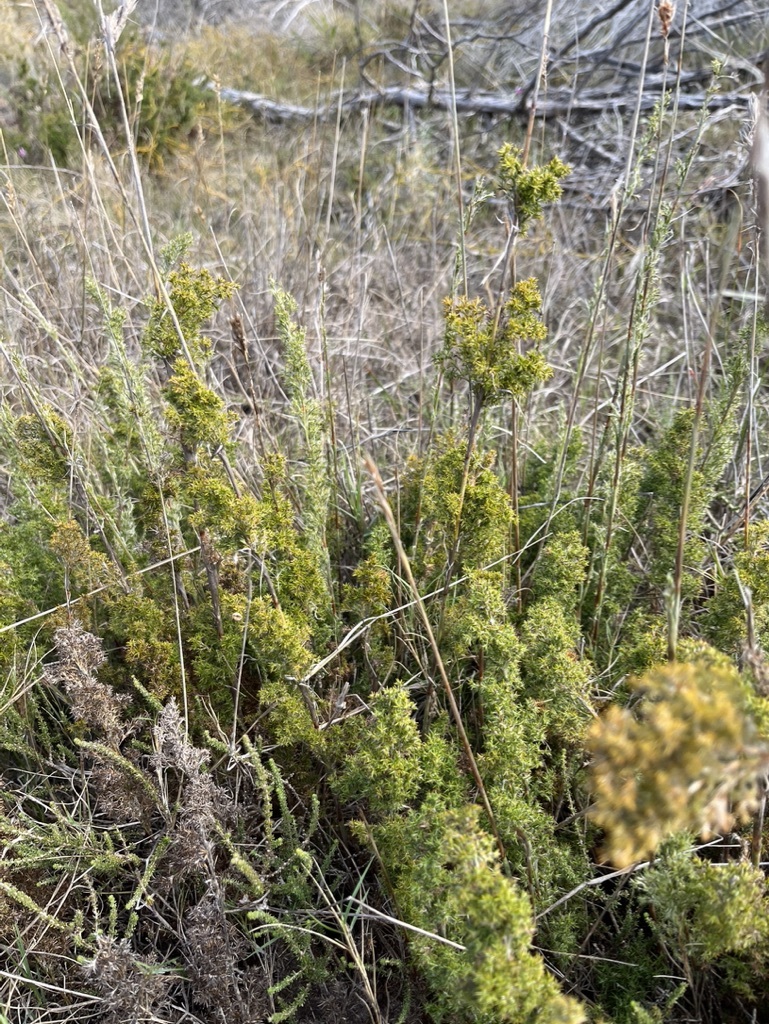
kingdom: Plantae
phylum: Tracheophyta
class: Liliopsida
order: Poales
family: Restionaceae
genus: Thamnochortus
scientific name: Thamnochortus fruticosus
